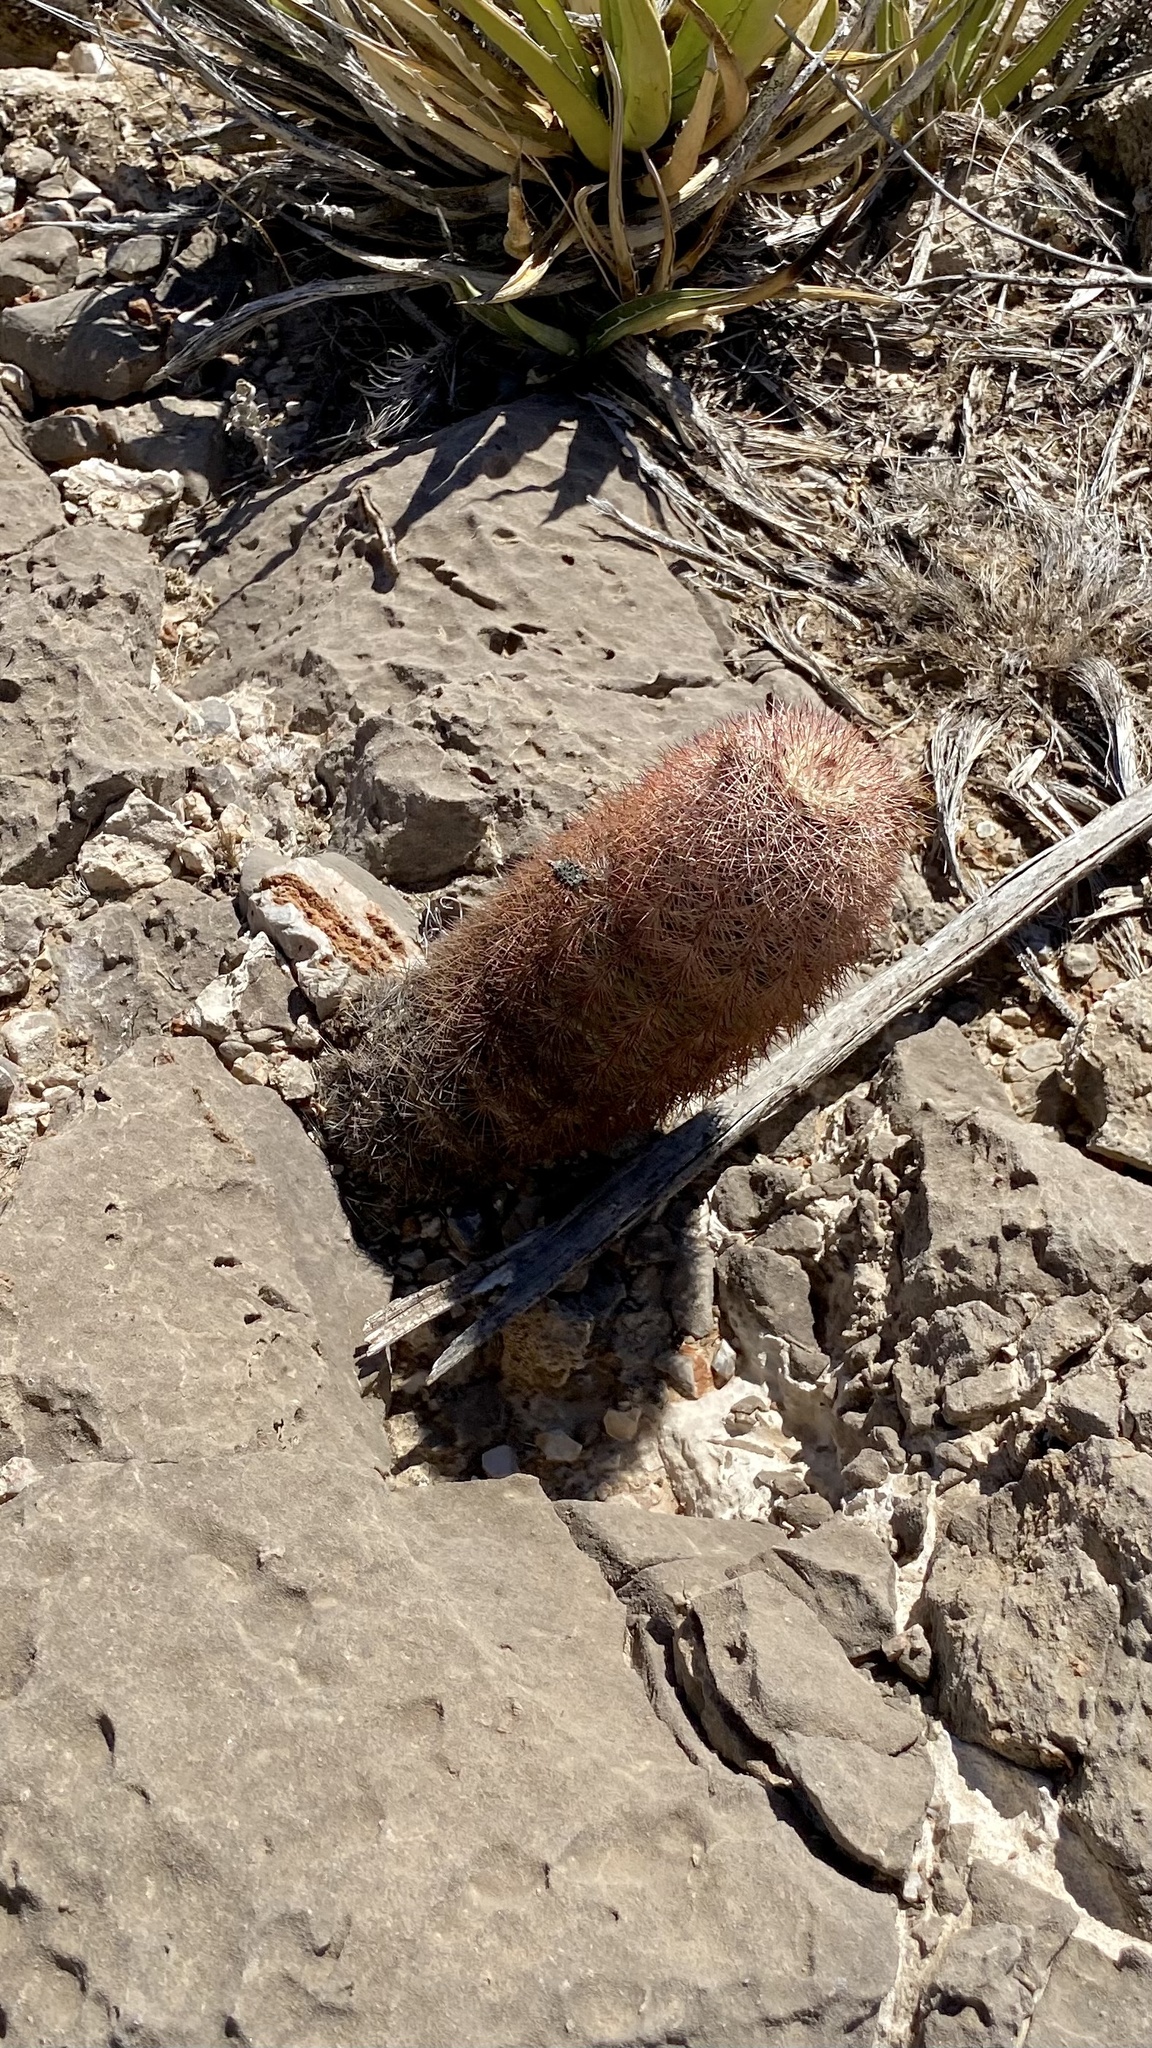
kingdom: Plantae
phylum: Tracheophyta
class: Magnoliopsida
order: Caryophyllales
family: Cactaceae
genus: Echinocereus
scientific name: Echinocereus dasyacanthus
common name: Spiny hedgehog cactus
